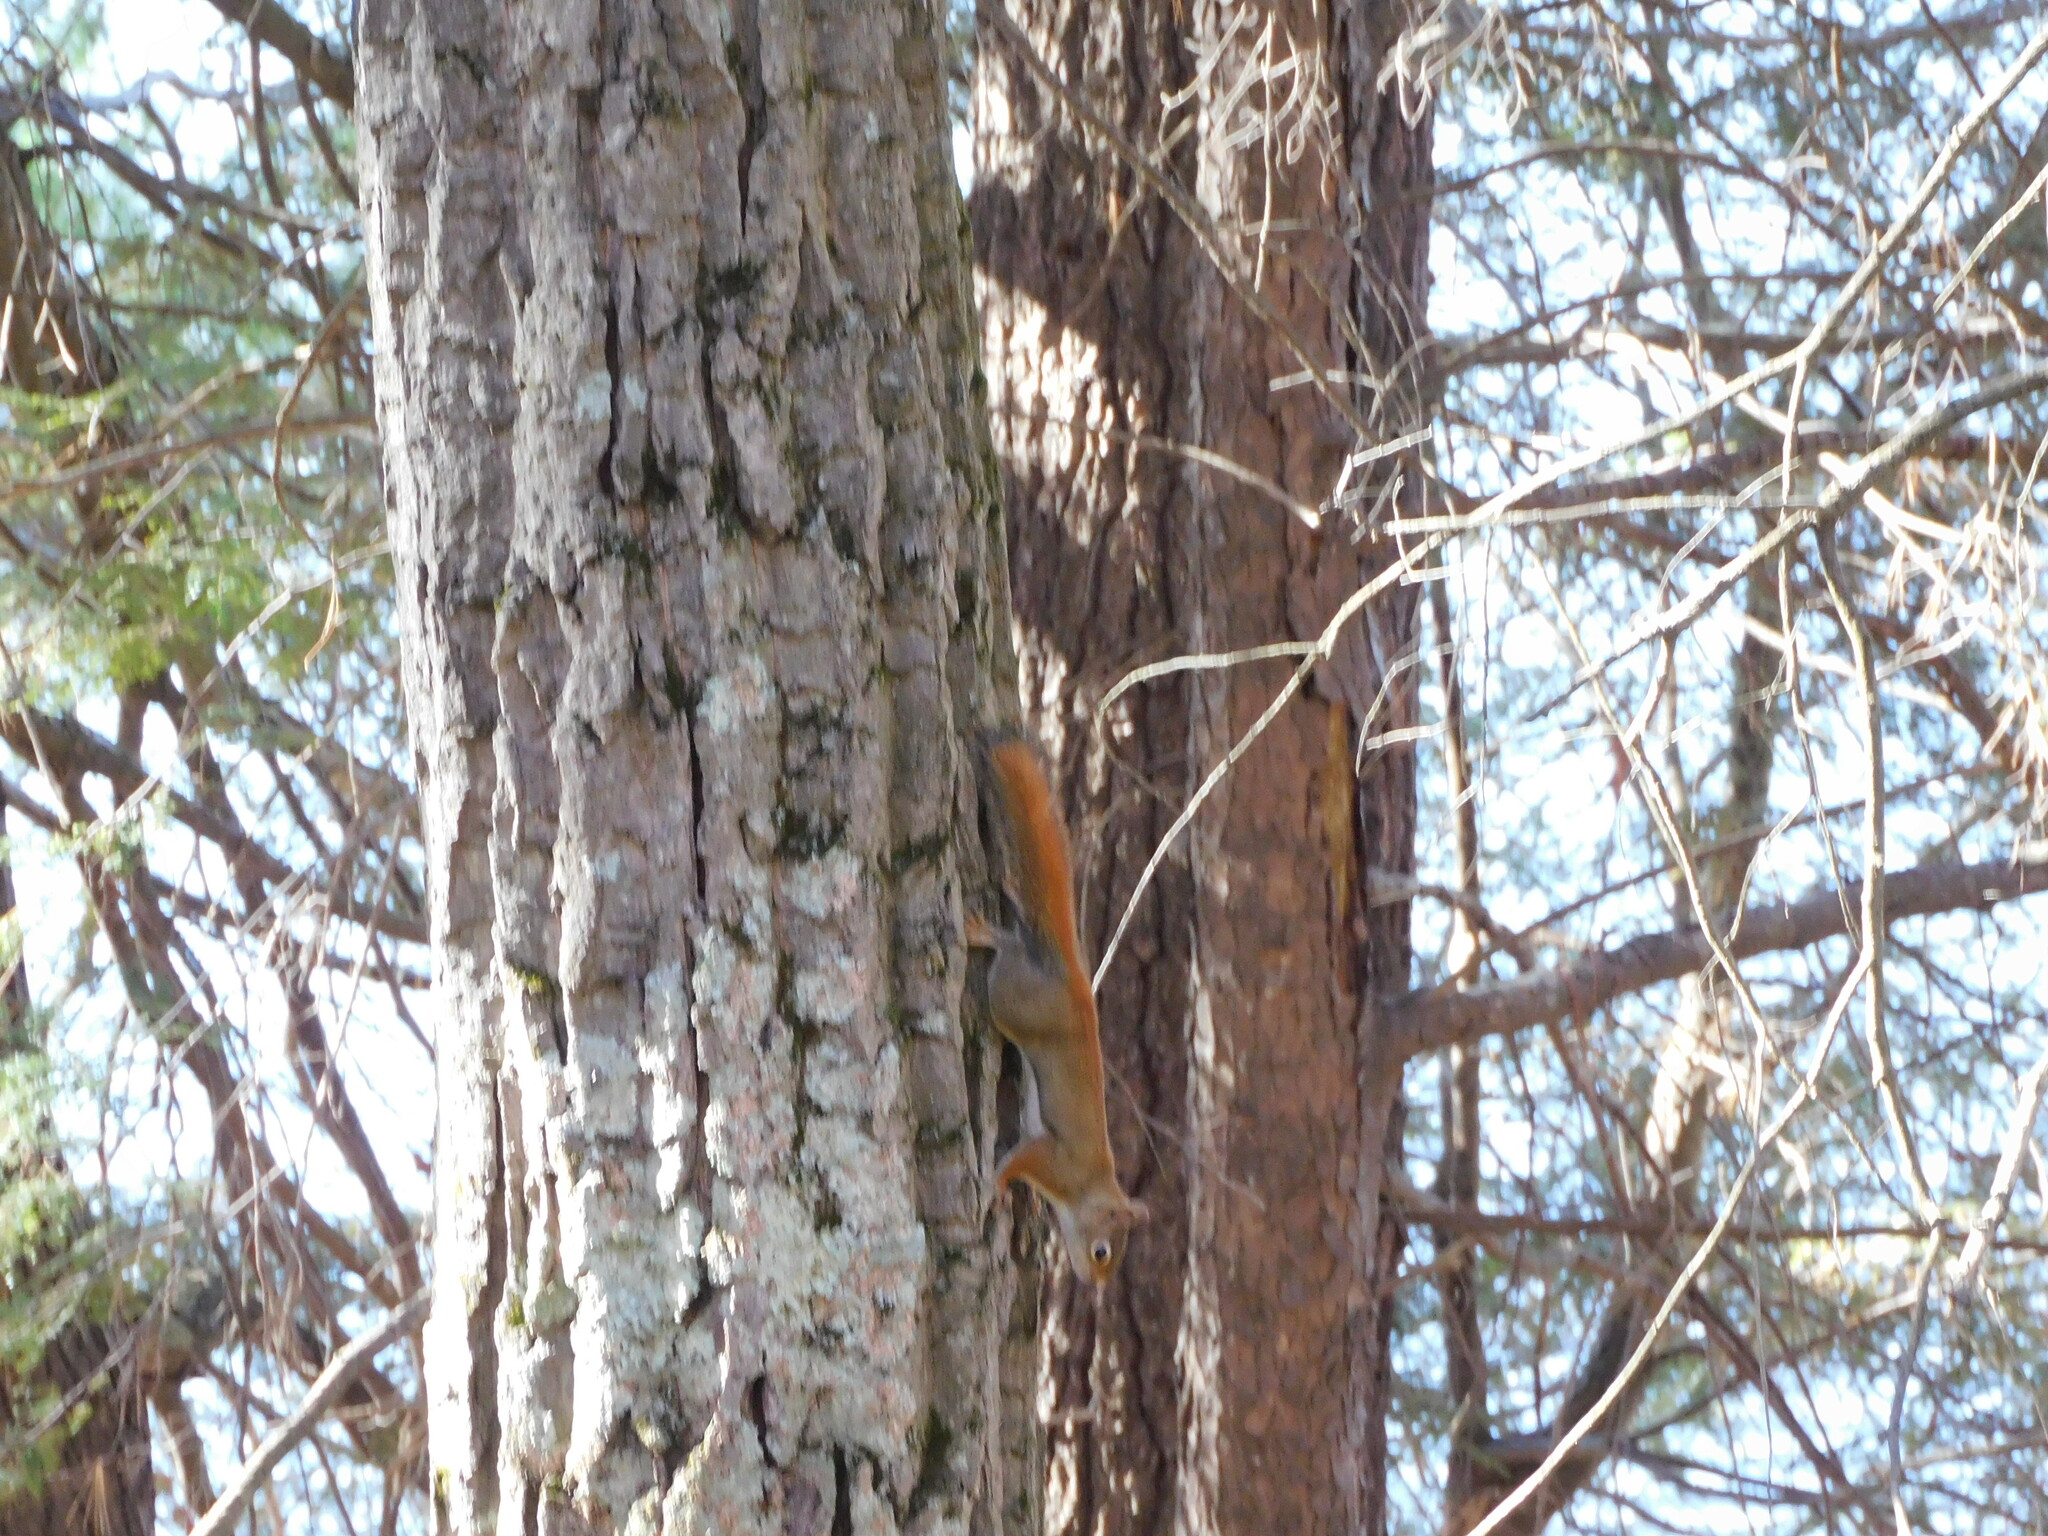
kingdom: Animalia
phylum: Chordata
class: Mammalia
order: Rodentia
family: Sciuridae
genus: Tamiasciurus
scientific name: Tamiasciurus hudsonicus
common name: Red squirrel
